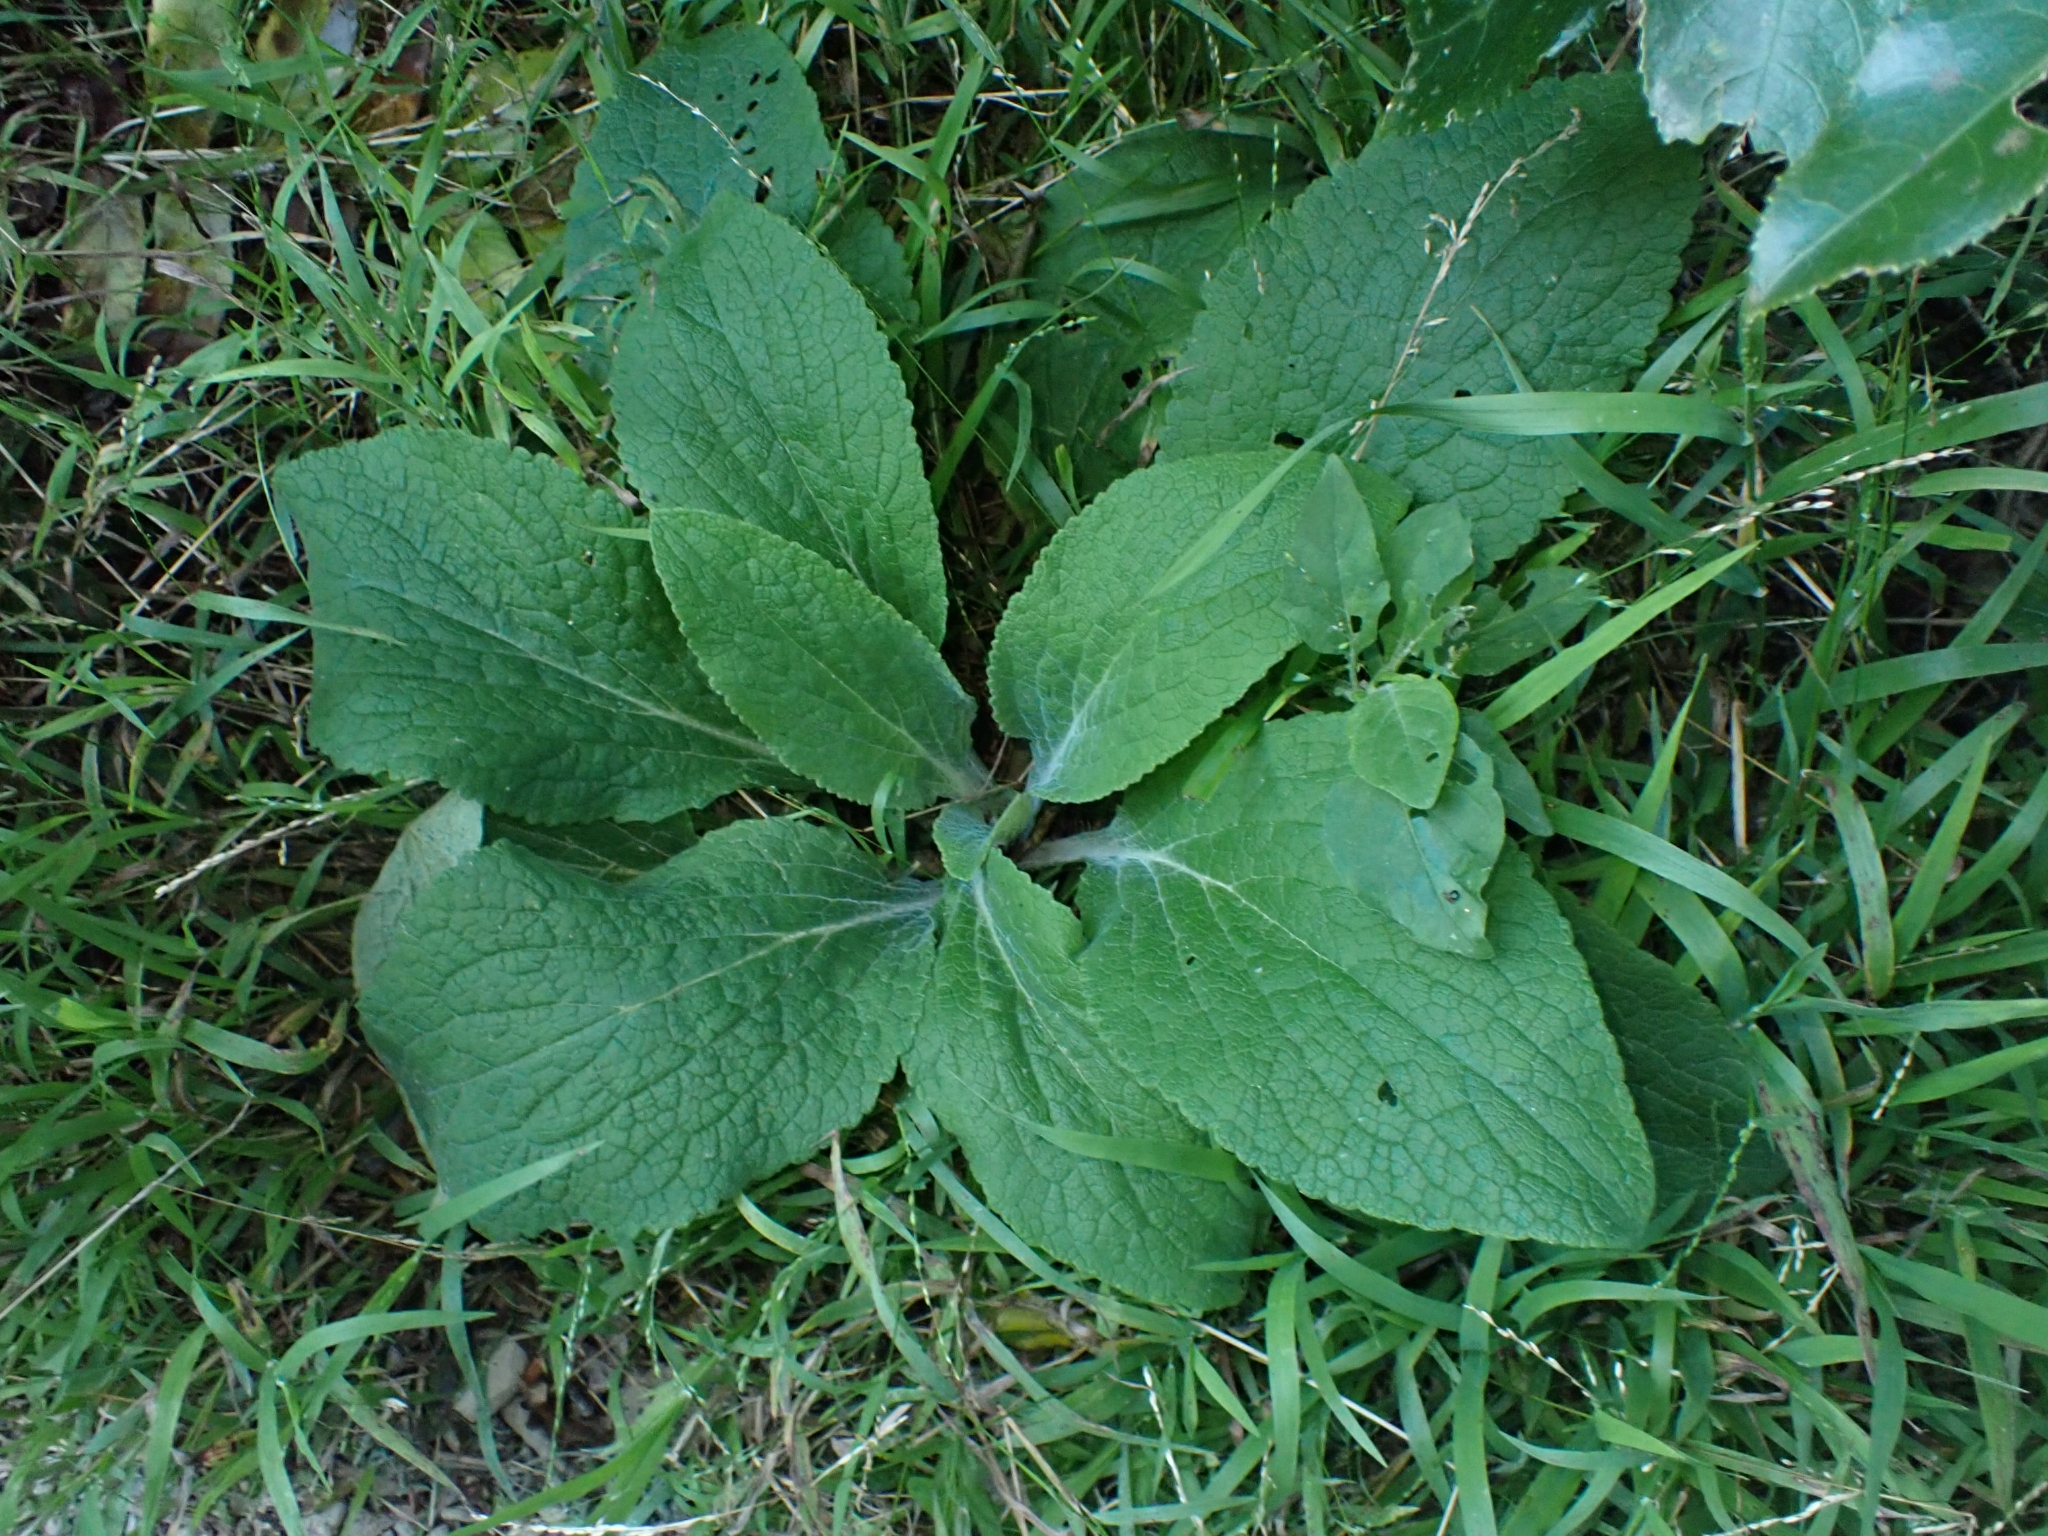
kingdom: Plantae
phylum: Tracheophyta
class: Magnoliopsida
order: Lamiales
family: Plantaginaceae
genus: Digitalis
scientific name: Digitalis purpurea
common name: Foxglove
